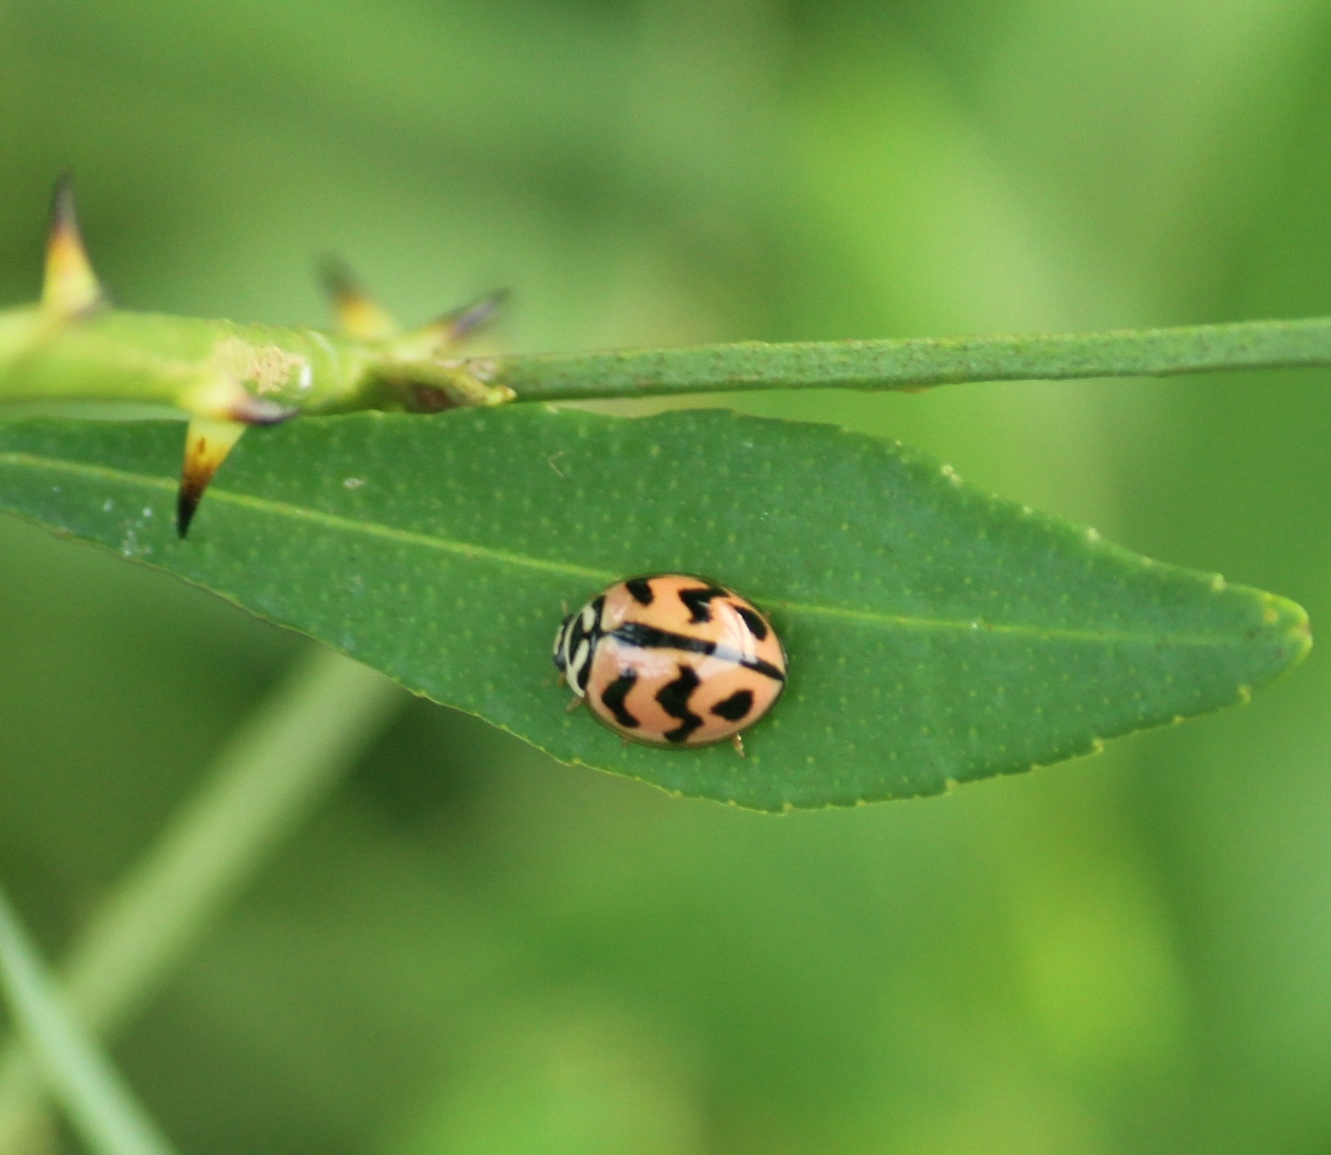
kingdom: Animalia
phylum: Arthropoda
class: Insecta
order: Coleoptera
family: Coccinellidae
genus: Cheilomenes
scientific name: Cheilomenes sexmaculata
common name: Ladybird beetle
